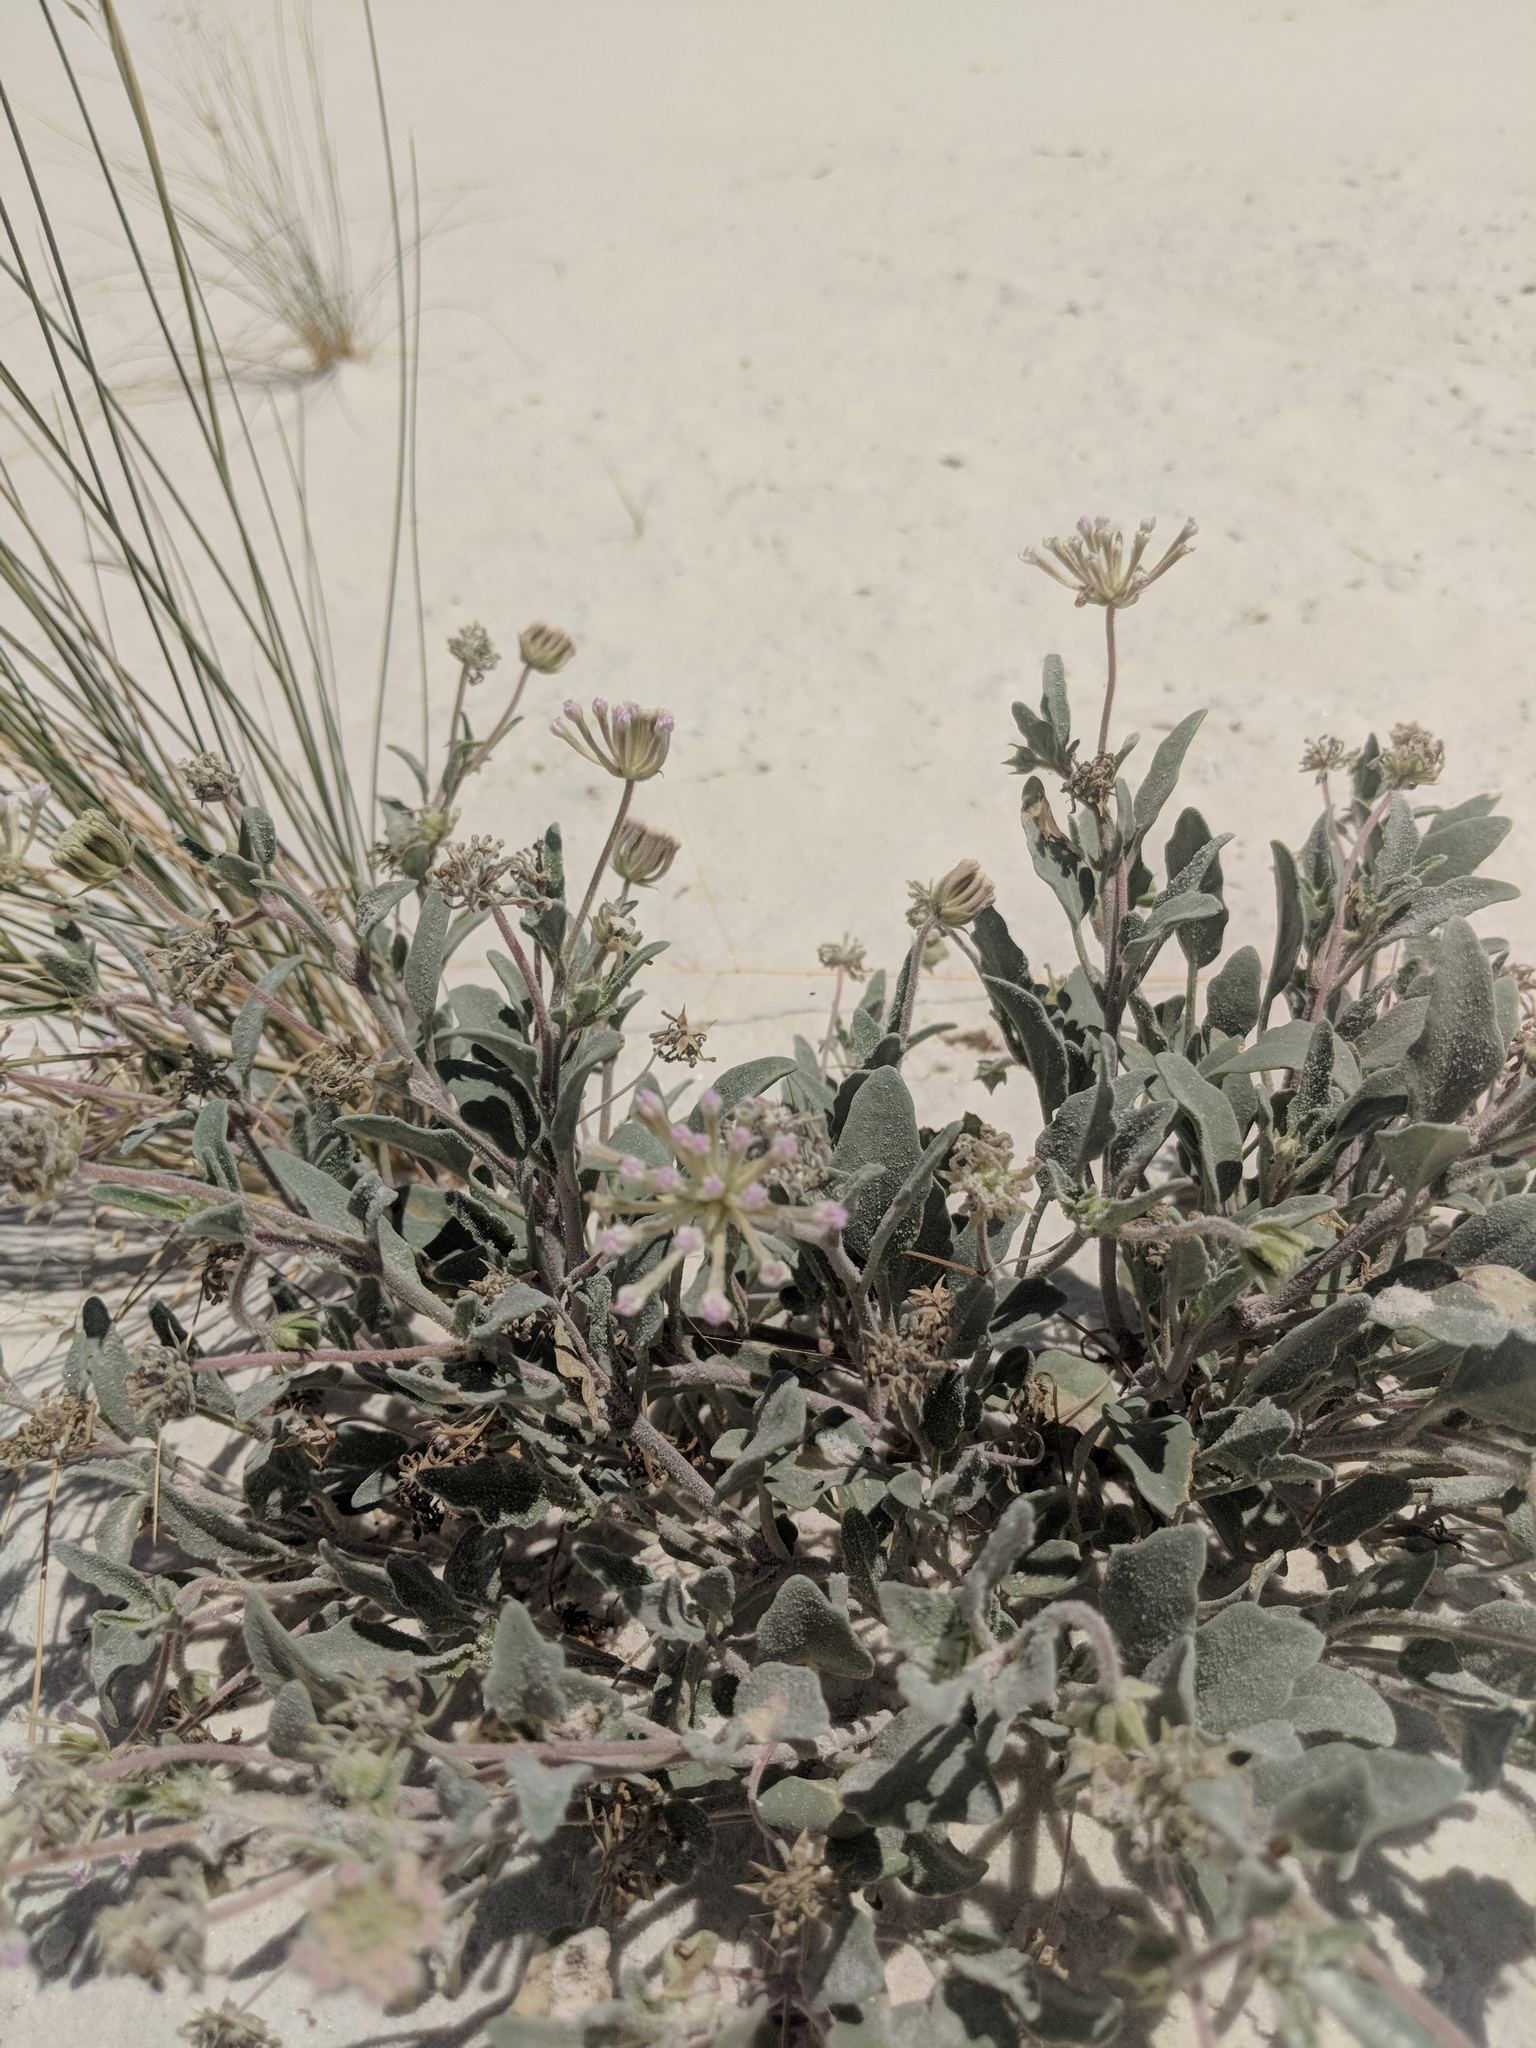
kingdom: Plantae
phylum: Tracheophyta
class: Magnoliopsida
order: Caryophyllales
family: Nyctaginaceae
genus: Abronia
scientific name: Abronia angustifolia
